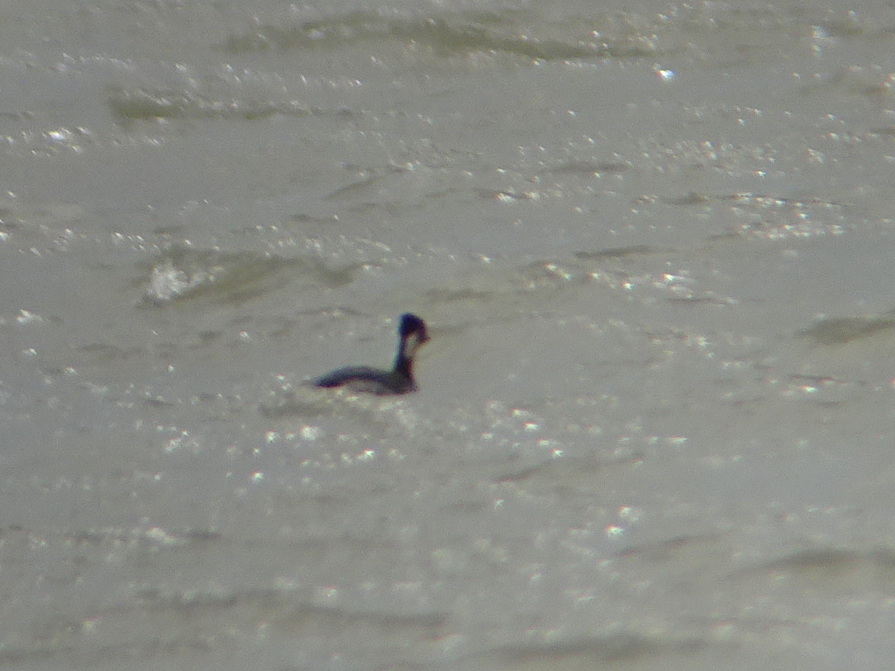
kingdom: Animalia
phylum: Chordata
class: Aves
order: Podicipediformes
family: Podicipedidae
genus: Podiceps
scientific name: Podiceps nigricollis
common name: Black-necked grebe
